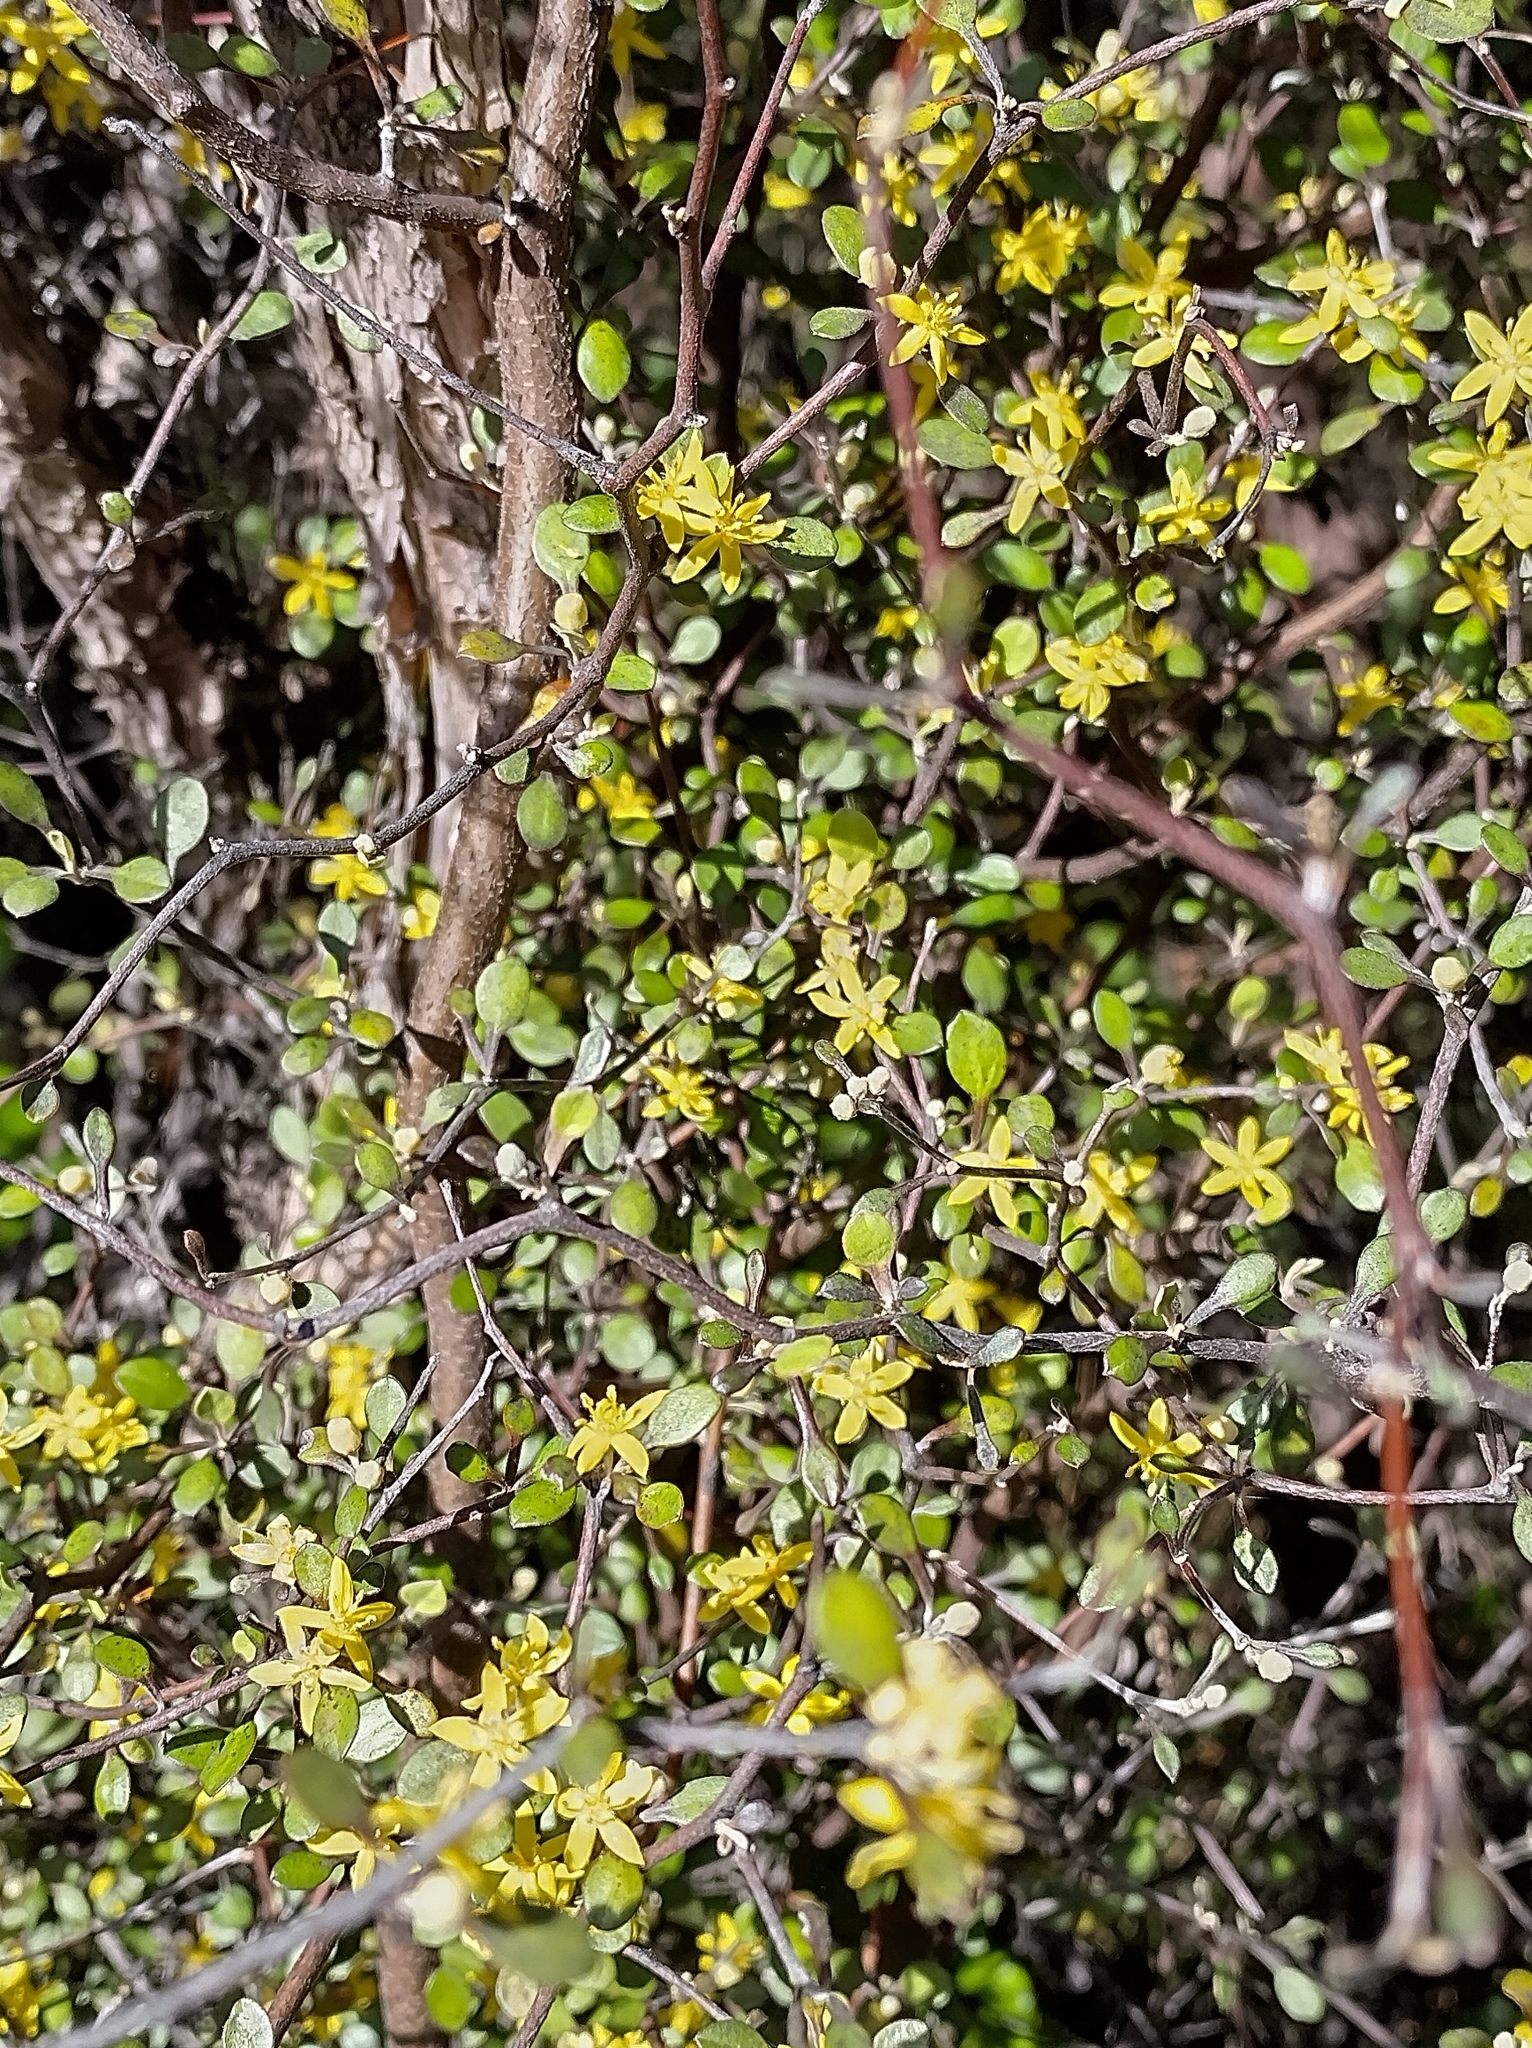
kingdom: Plantae
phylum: Tracheophyta
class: Magnoliopsida
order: Asterales
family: Argophyllaceae
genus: Corokia
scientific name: Corokia cotoneaster
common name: Wire nettingbush
